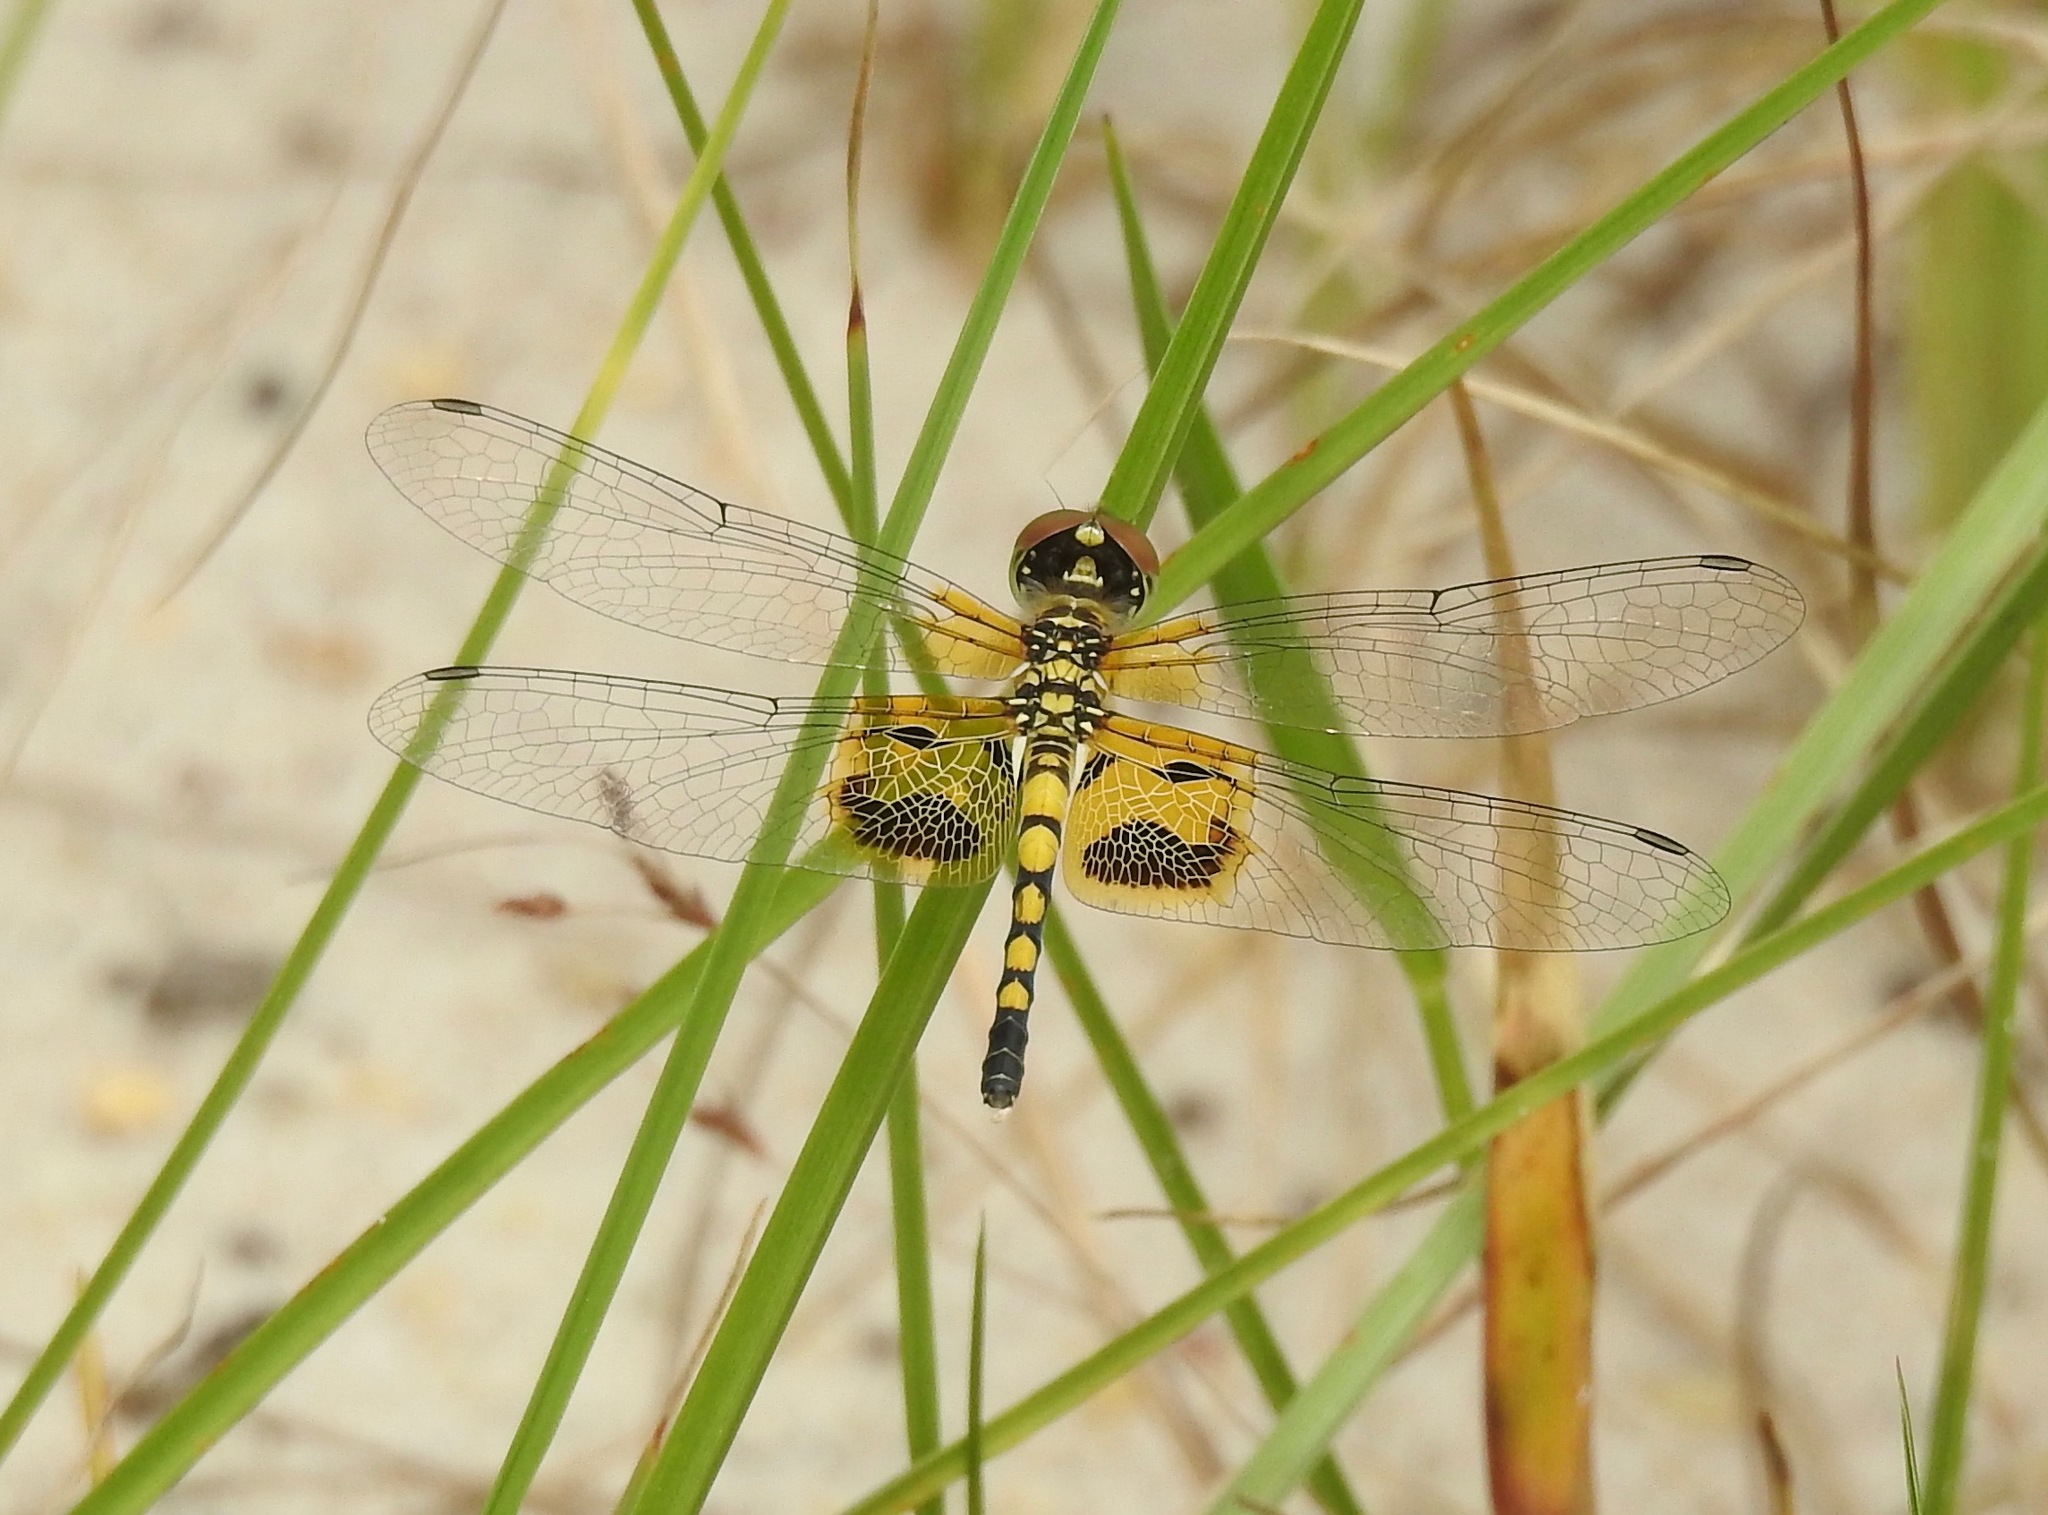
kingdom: Animalia
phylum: Arthropoda
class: Insecta
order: Odonata
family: Libellulidae
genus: Celithemis
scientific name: Celithemis amanda
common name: Amanda's pennant
